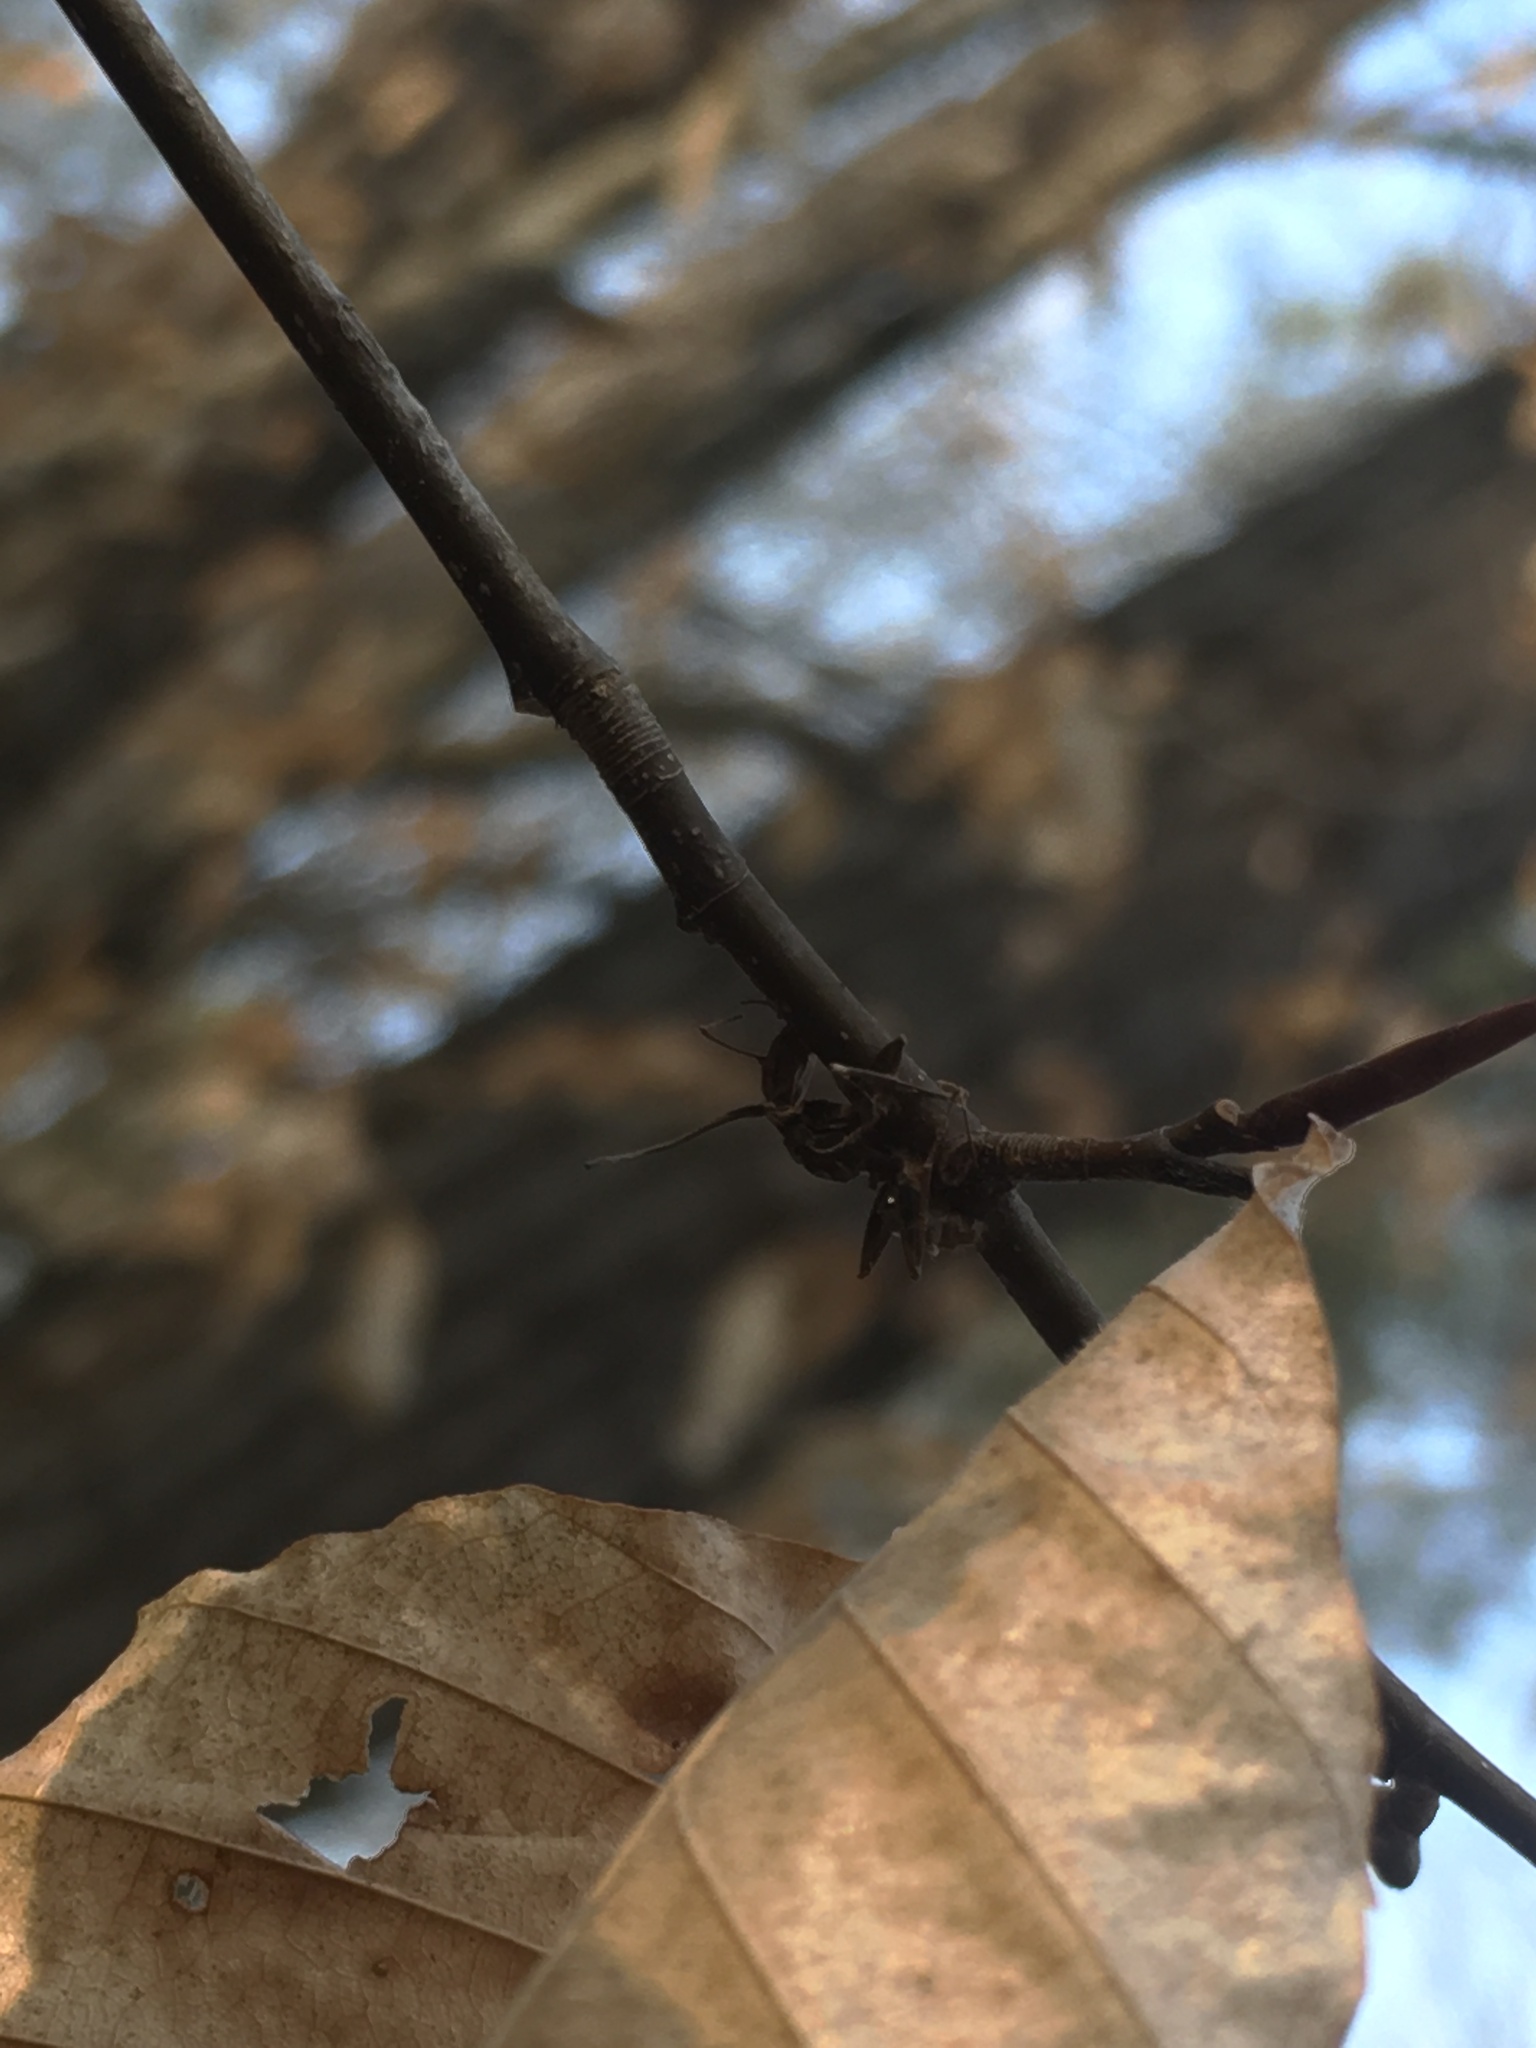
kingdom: Fungi
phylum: Ascomycota
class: Sordariomycetes
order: Hypocreales
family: Ophiocordycipitaceae
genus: Ophiocordyceps
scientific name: Ophiocordyceps kimflemingiae
